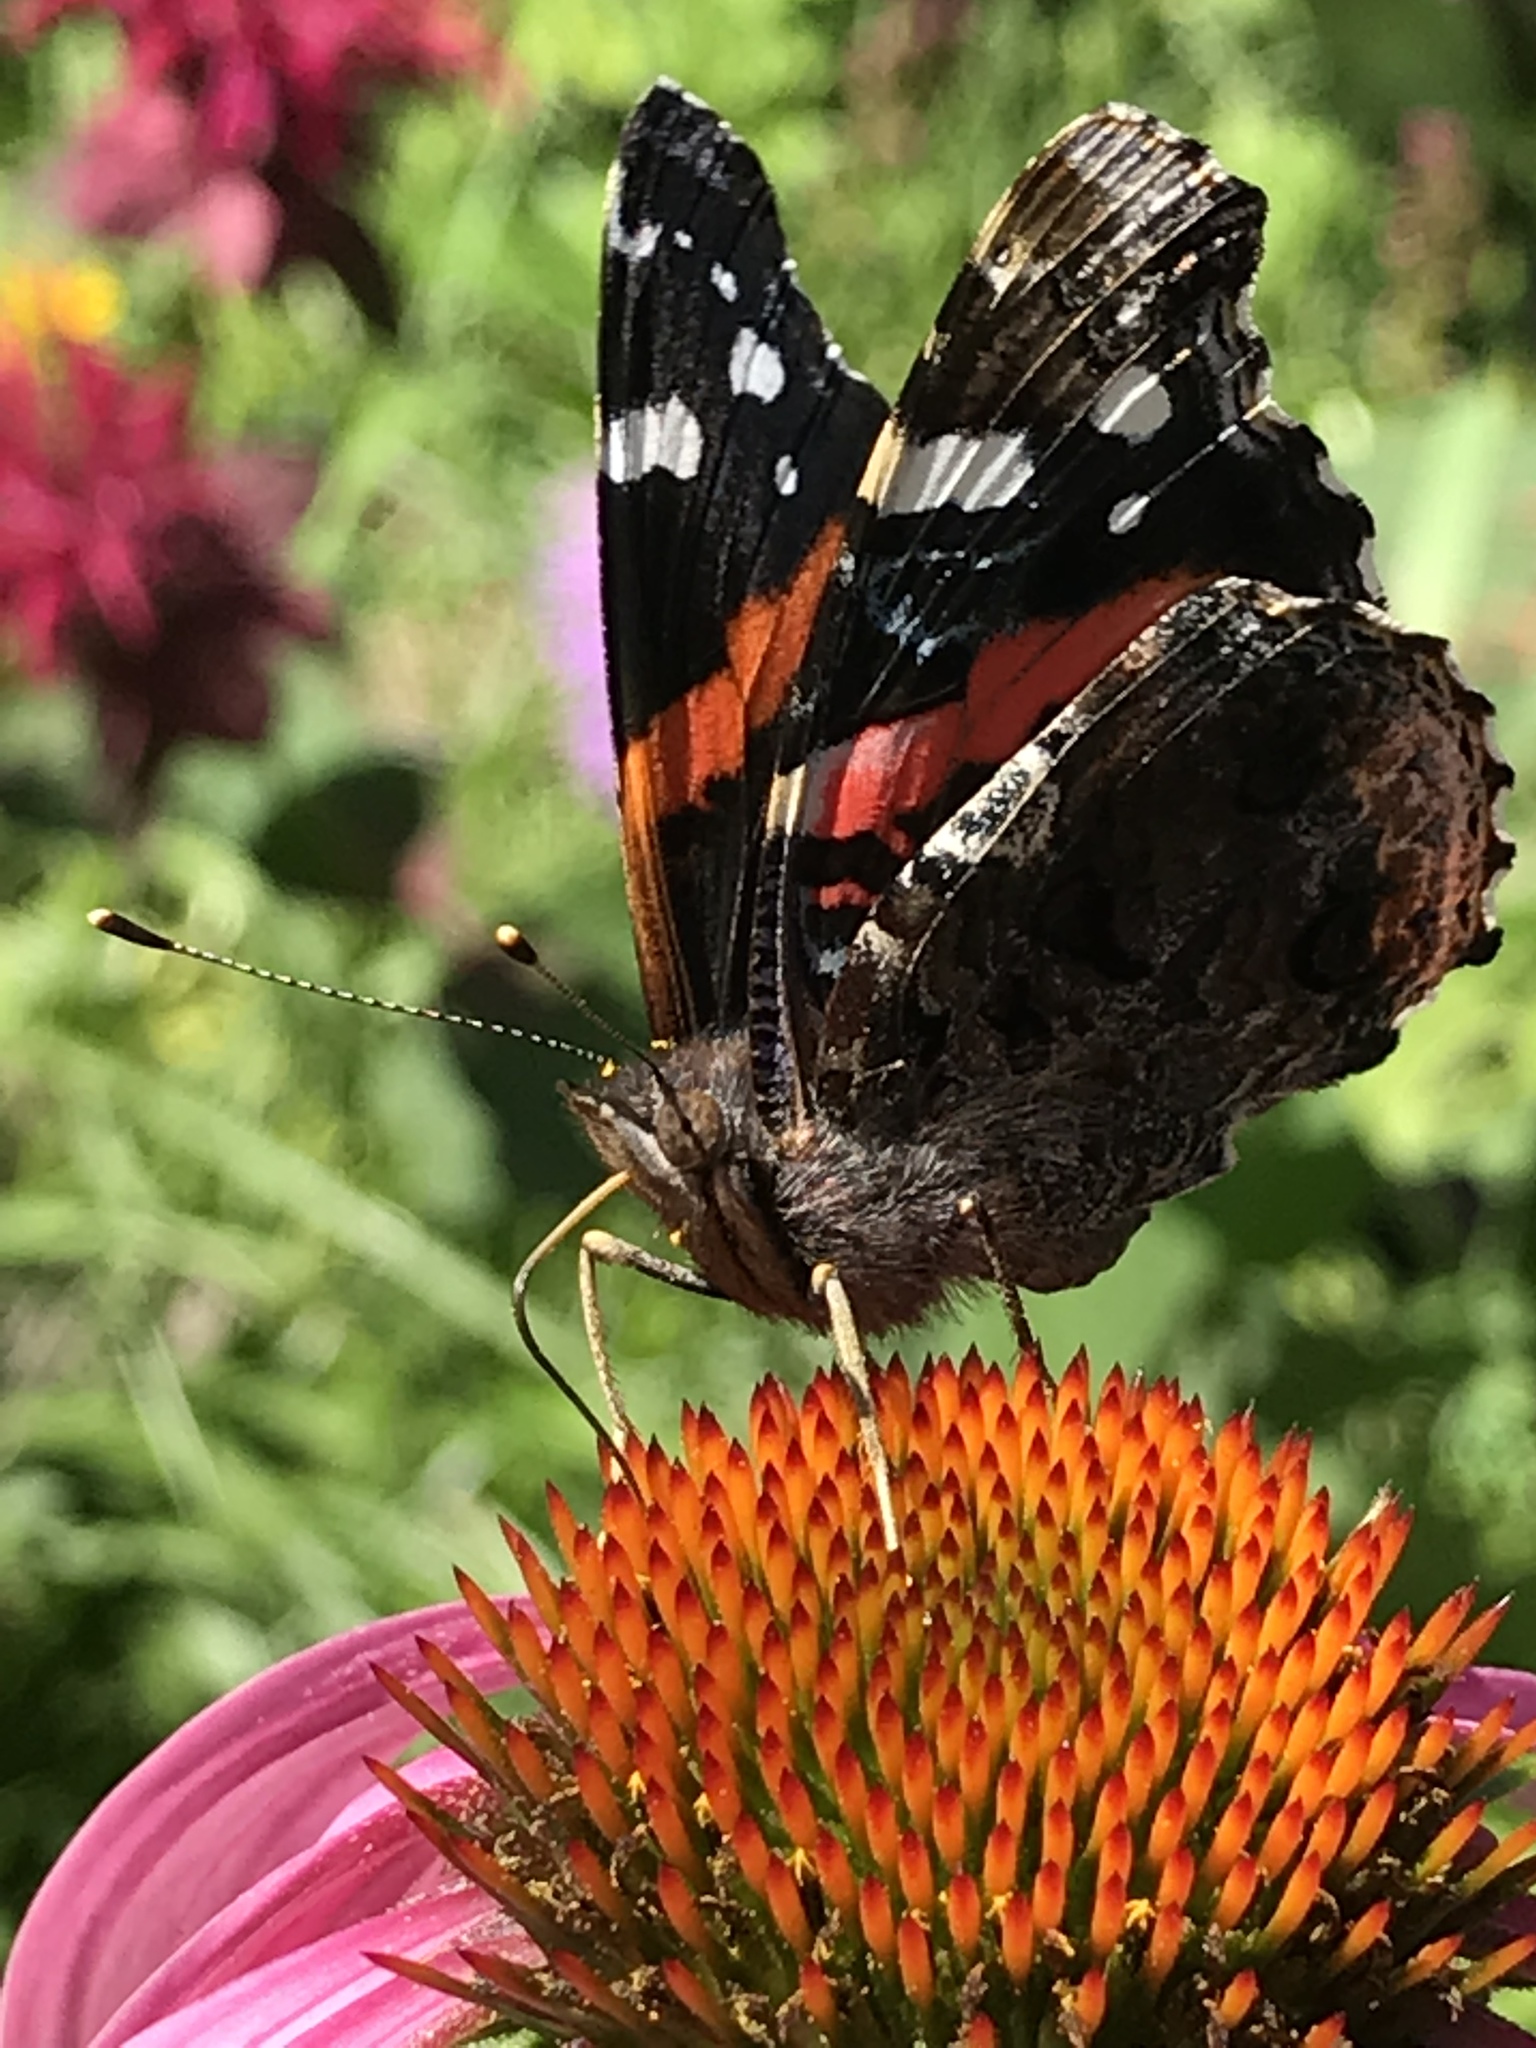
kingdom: Animalia
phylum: Arthropoda
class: Insecta
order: Lepidoptera
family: Nymphalidae
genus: Vanessa
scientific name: Vanessa atalanta
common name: Red admiral
